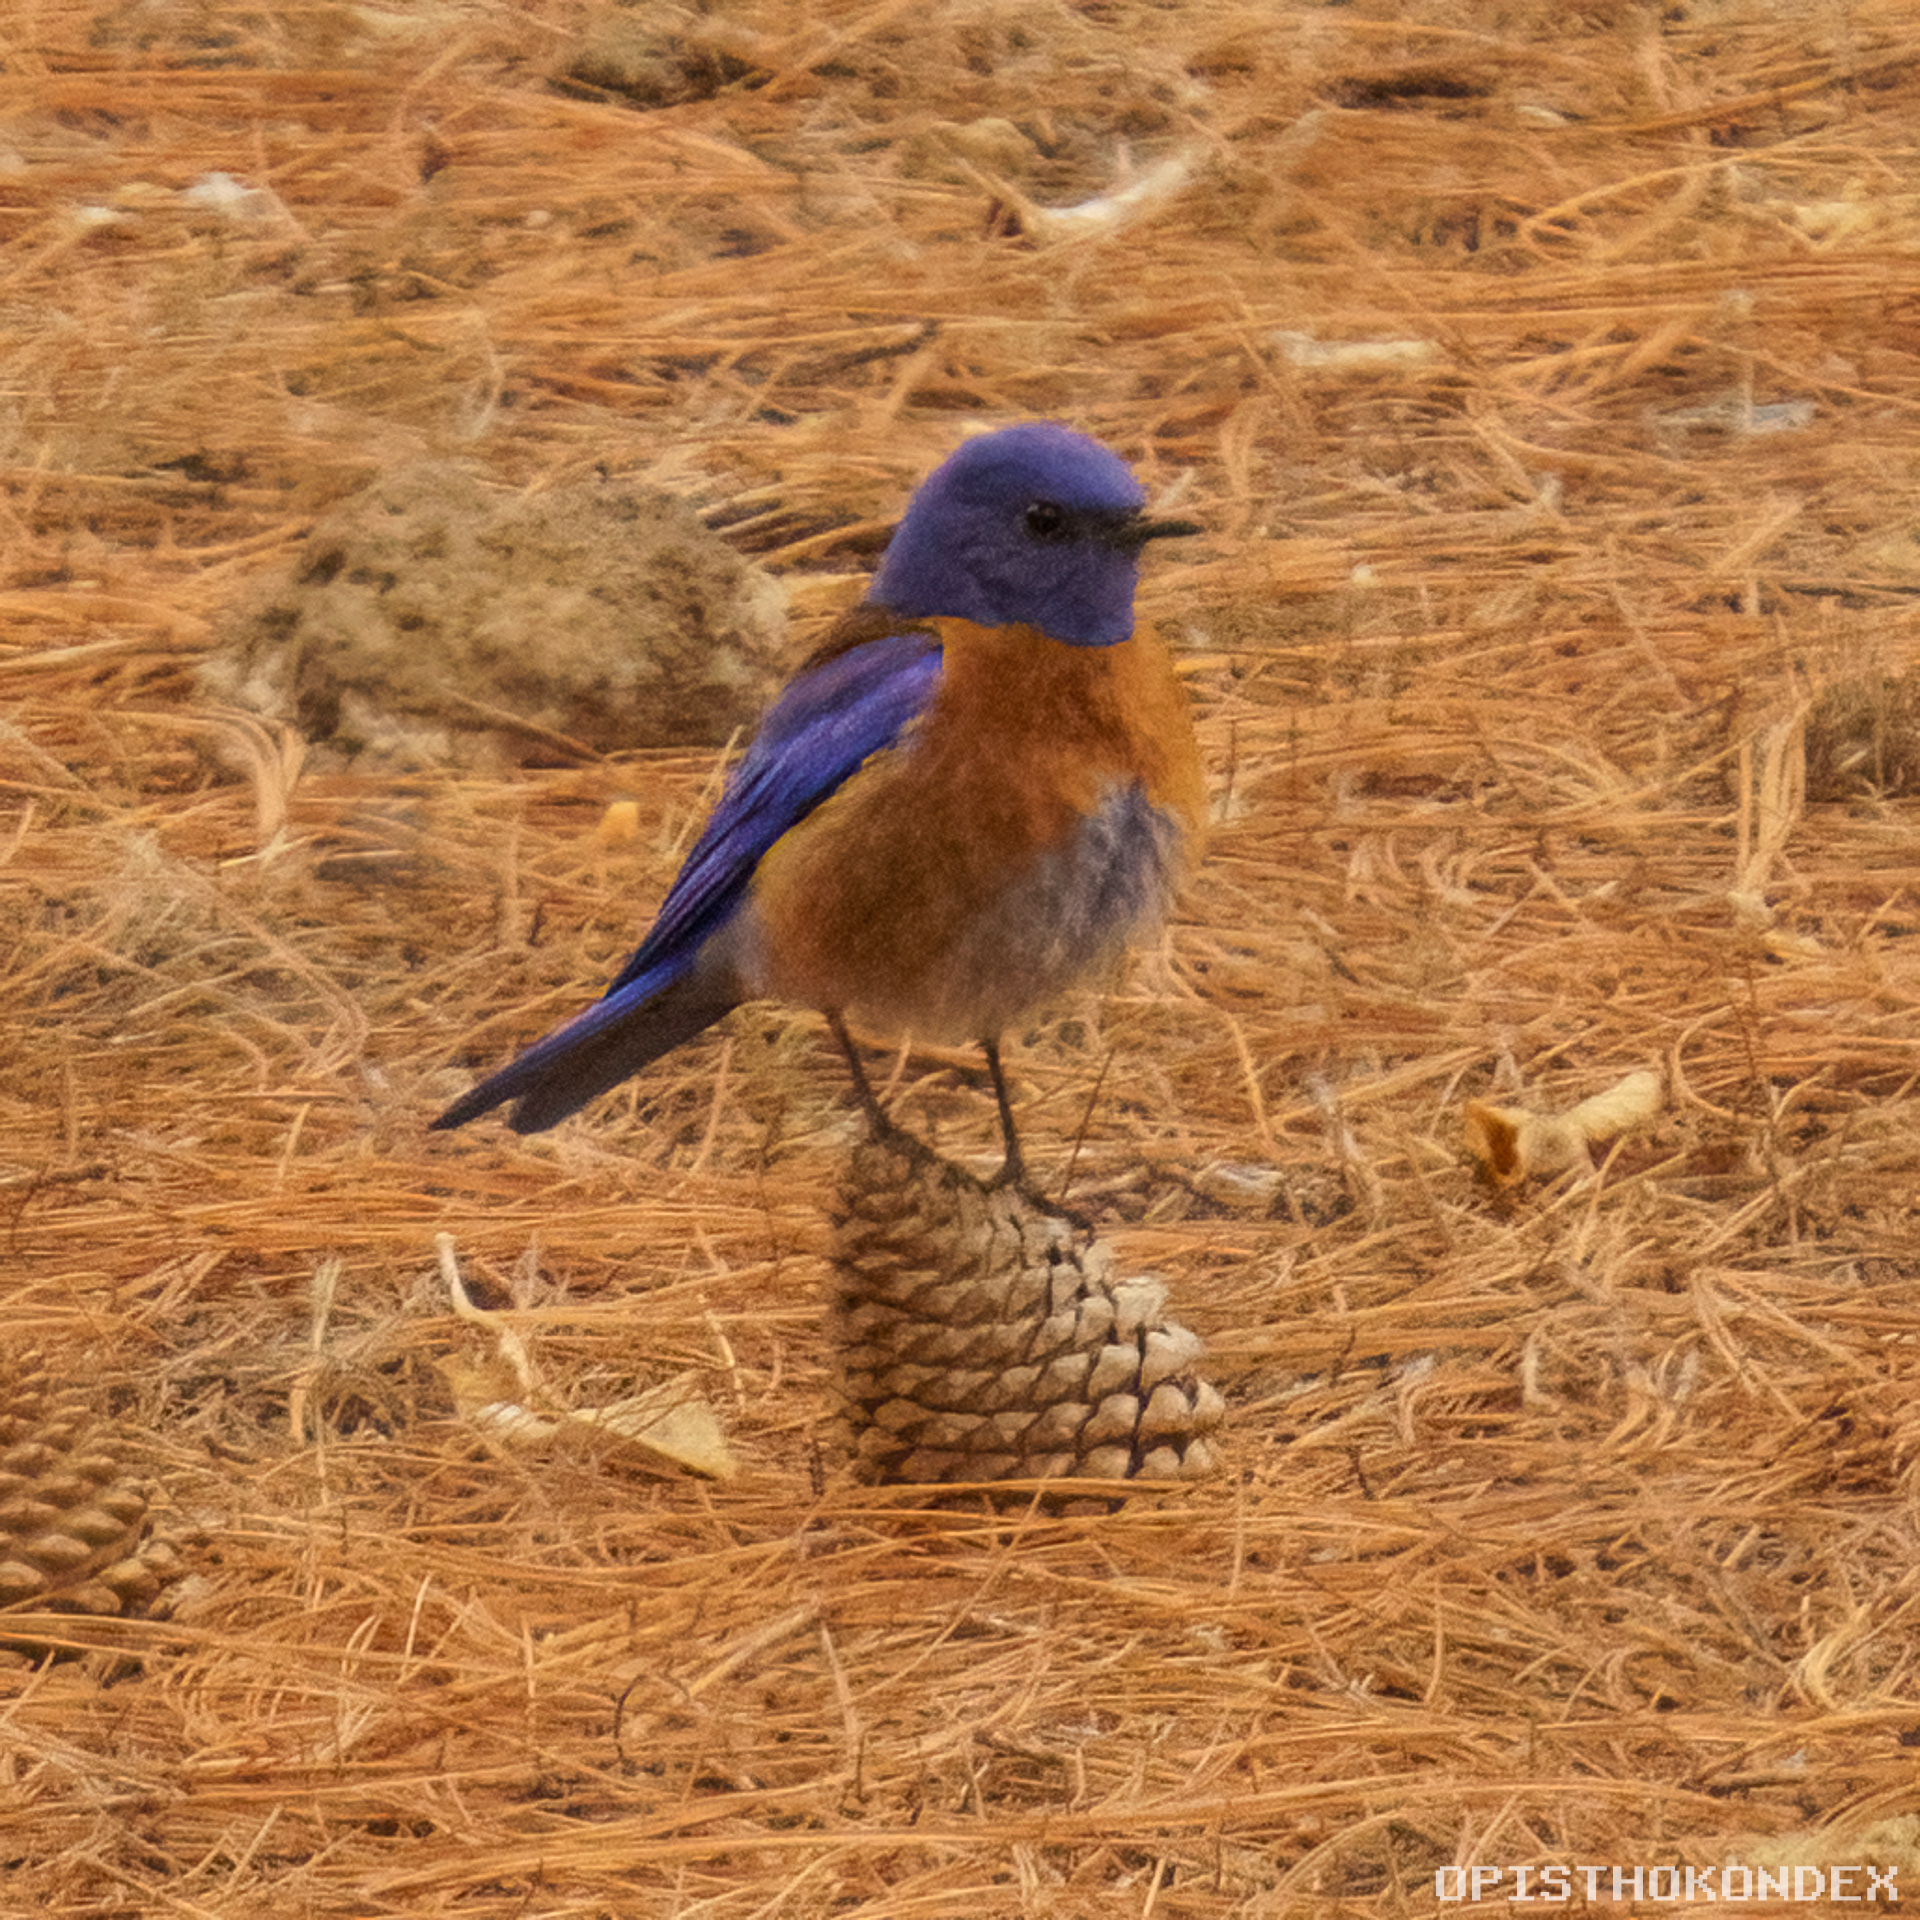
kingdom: Animalia
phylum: Chordata
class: Aves
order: Passeriformes
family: Turdidae
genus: Sialia
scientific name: Sialia mexicana
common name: Western bluebird
